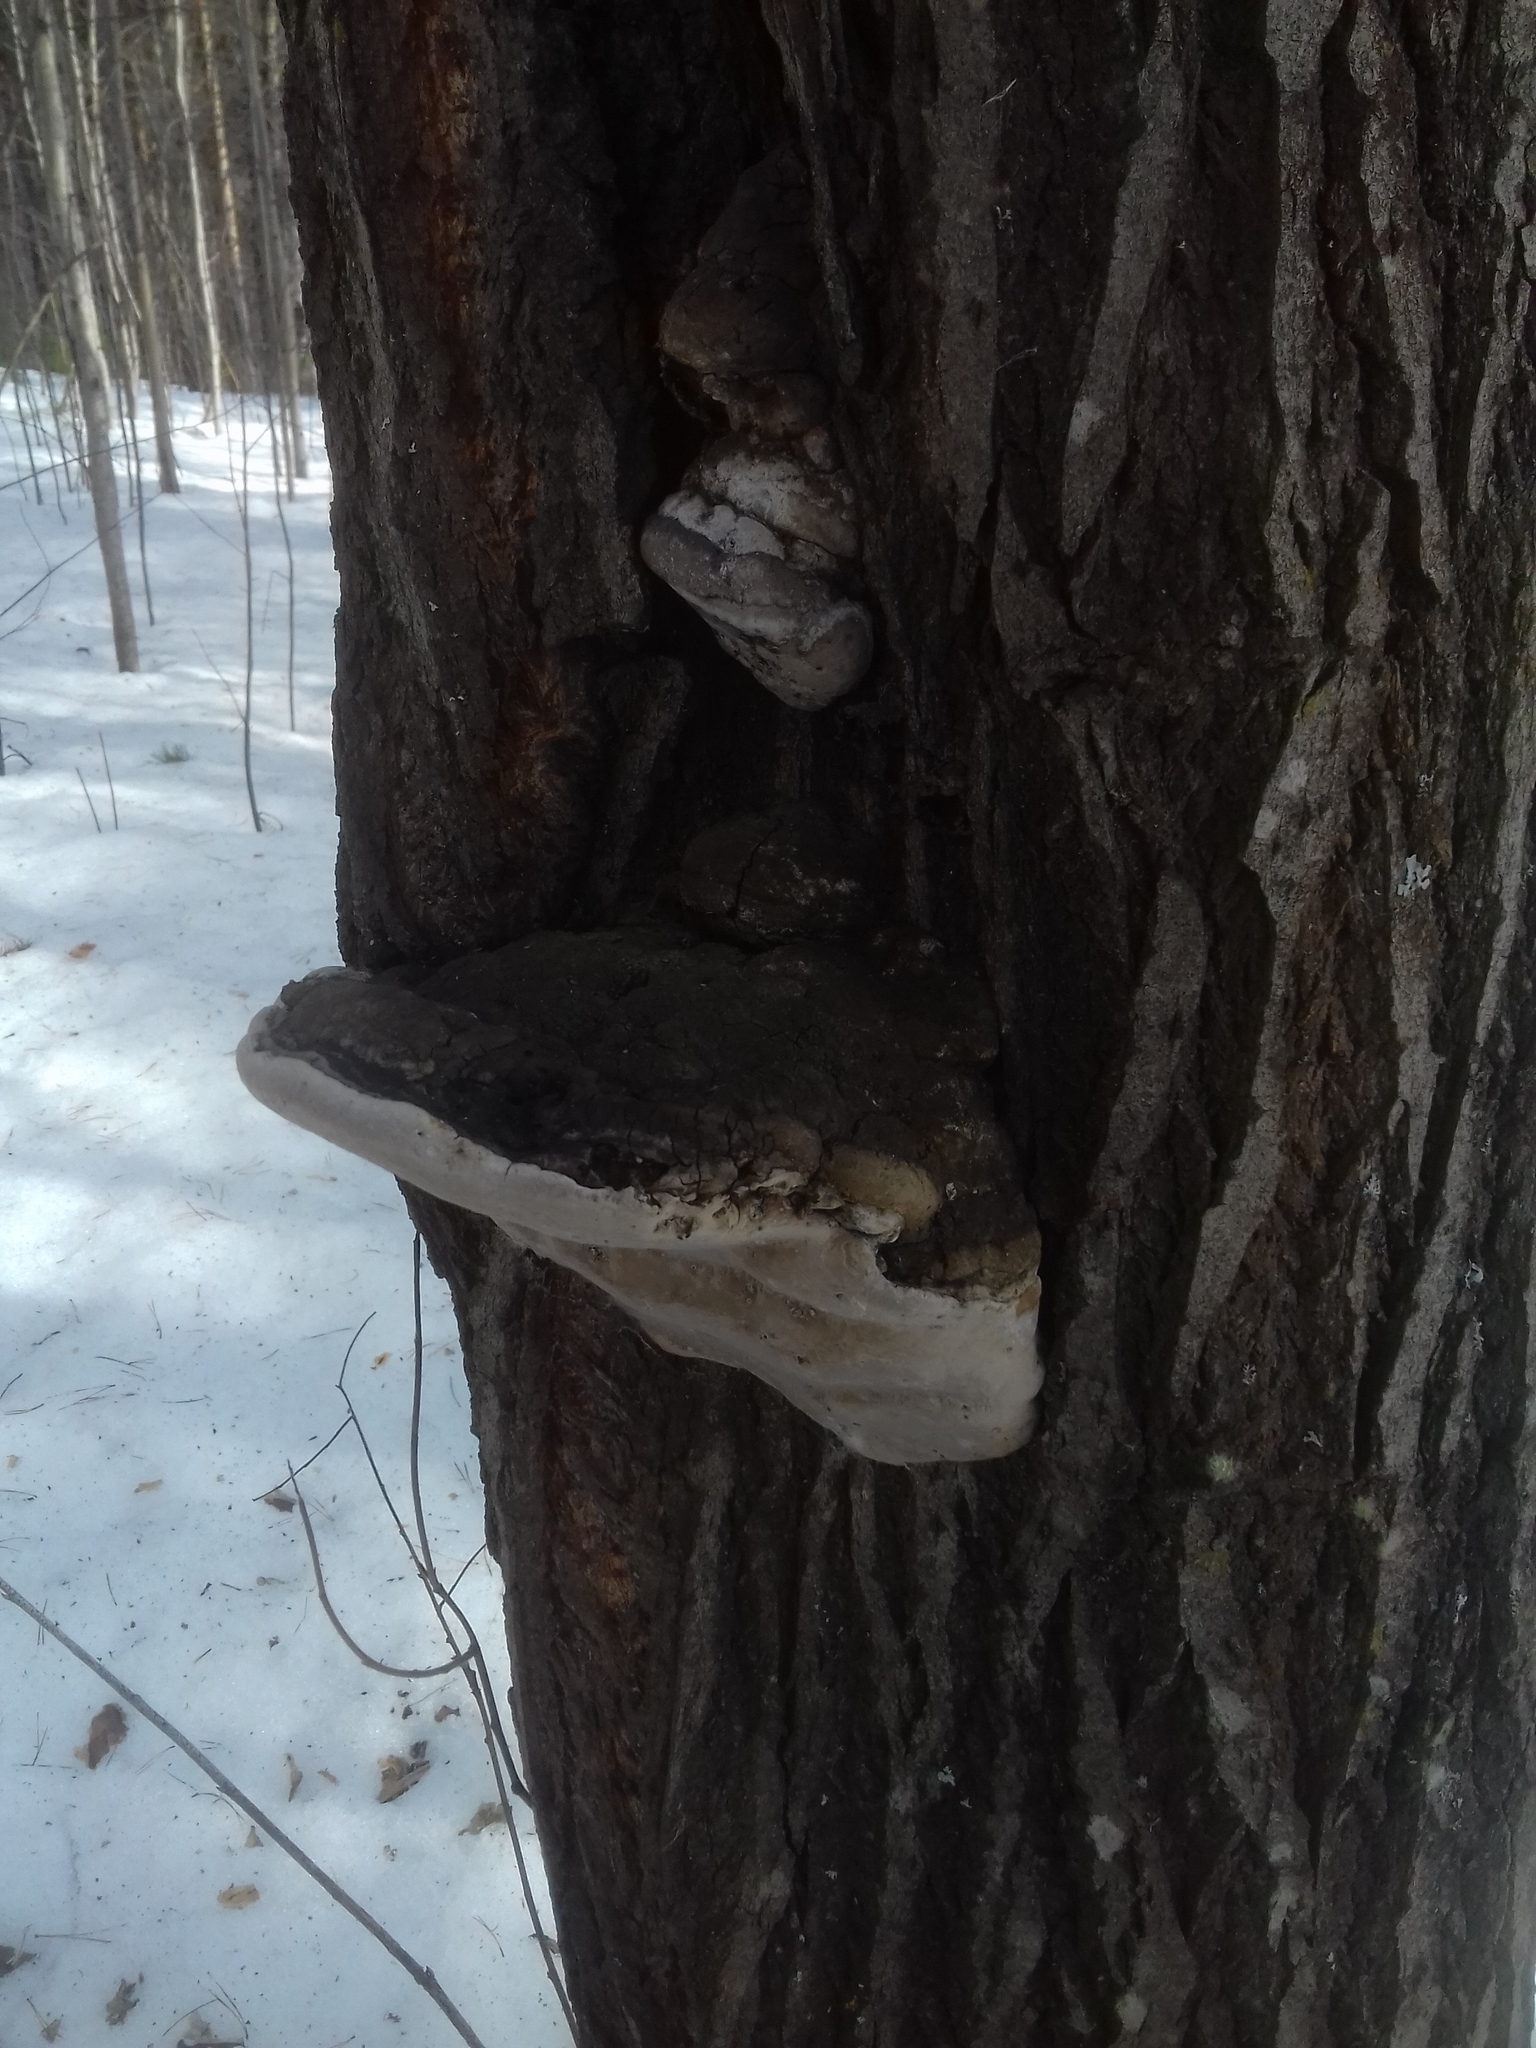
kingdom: Fungi
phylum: Basidiomycota
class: Agaricomycetes
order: Hymenochaetales
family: Hymenochaetaceae
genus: Phellinus
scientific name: Phellinus igniarius
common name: Willow bracket
